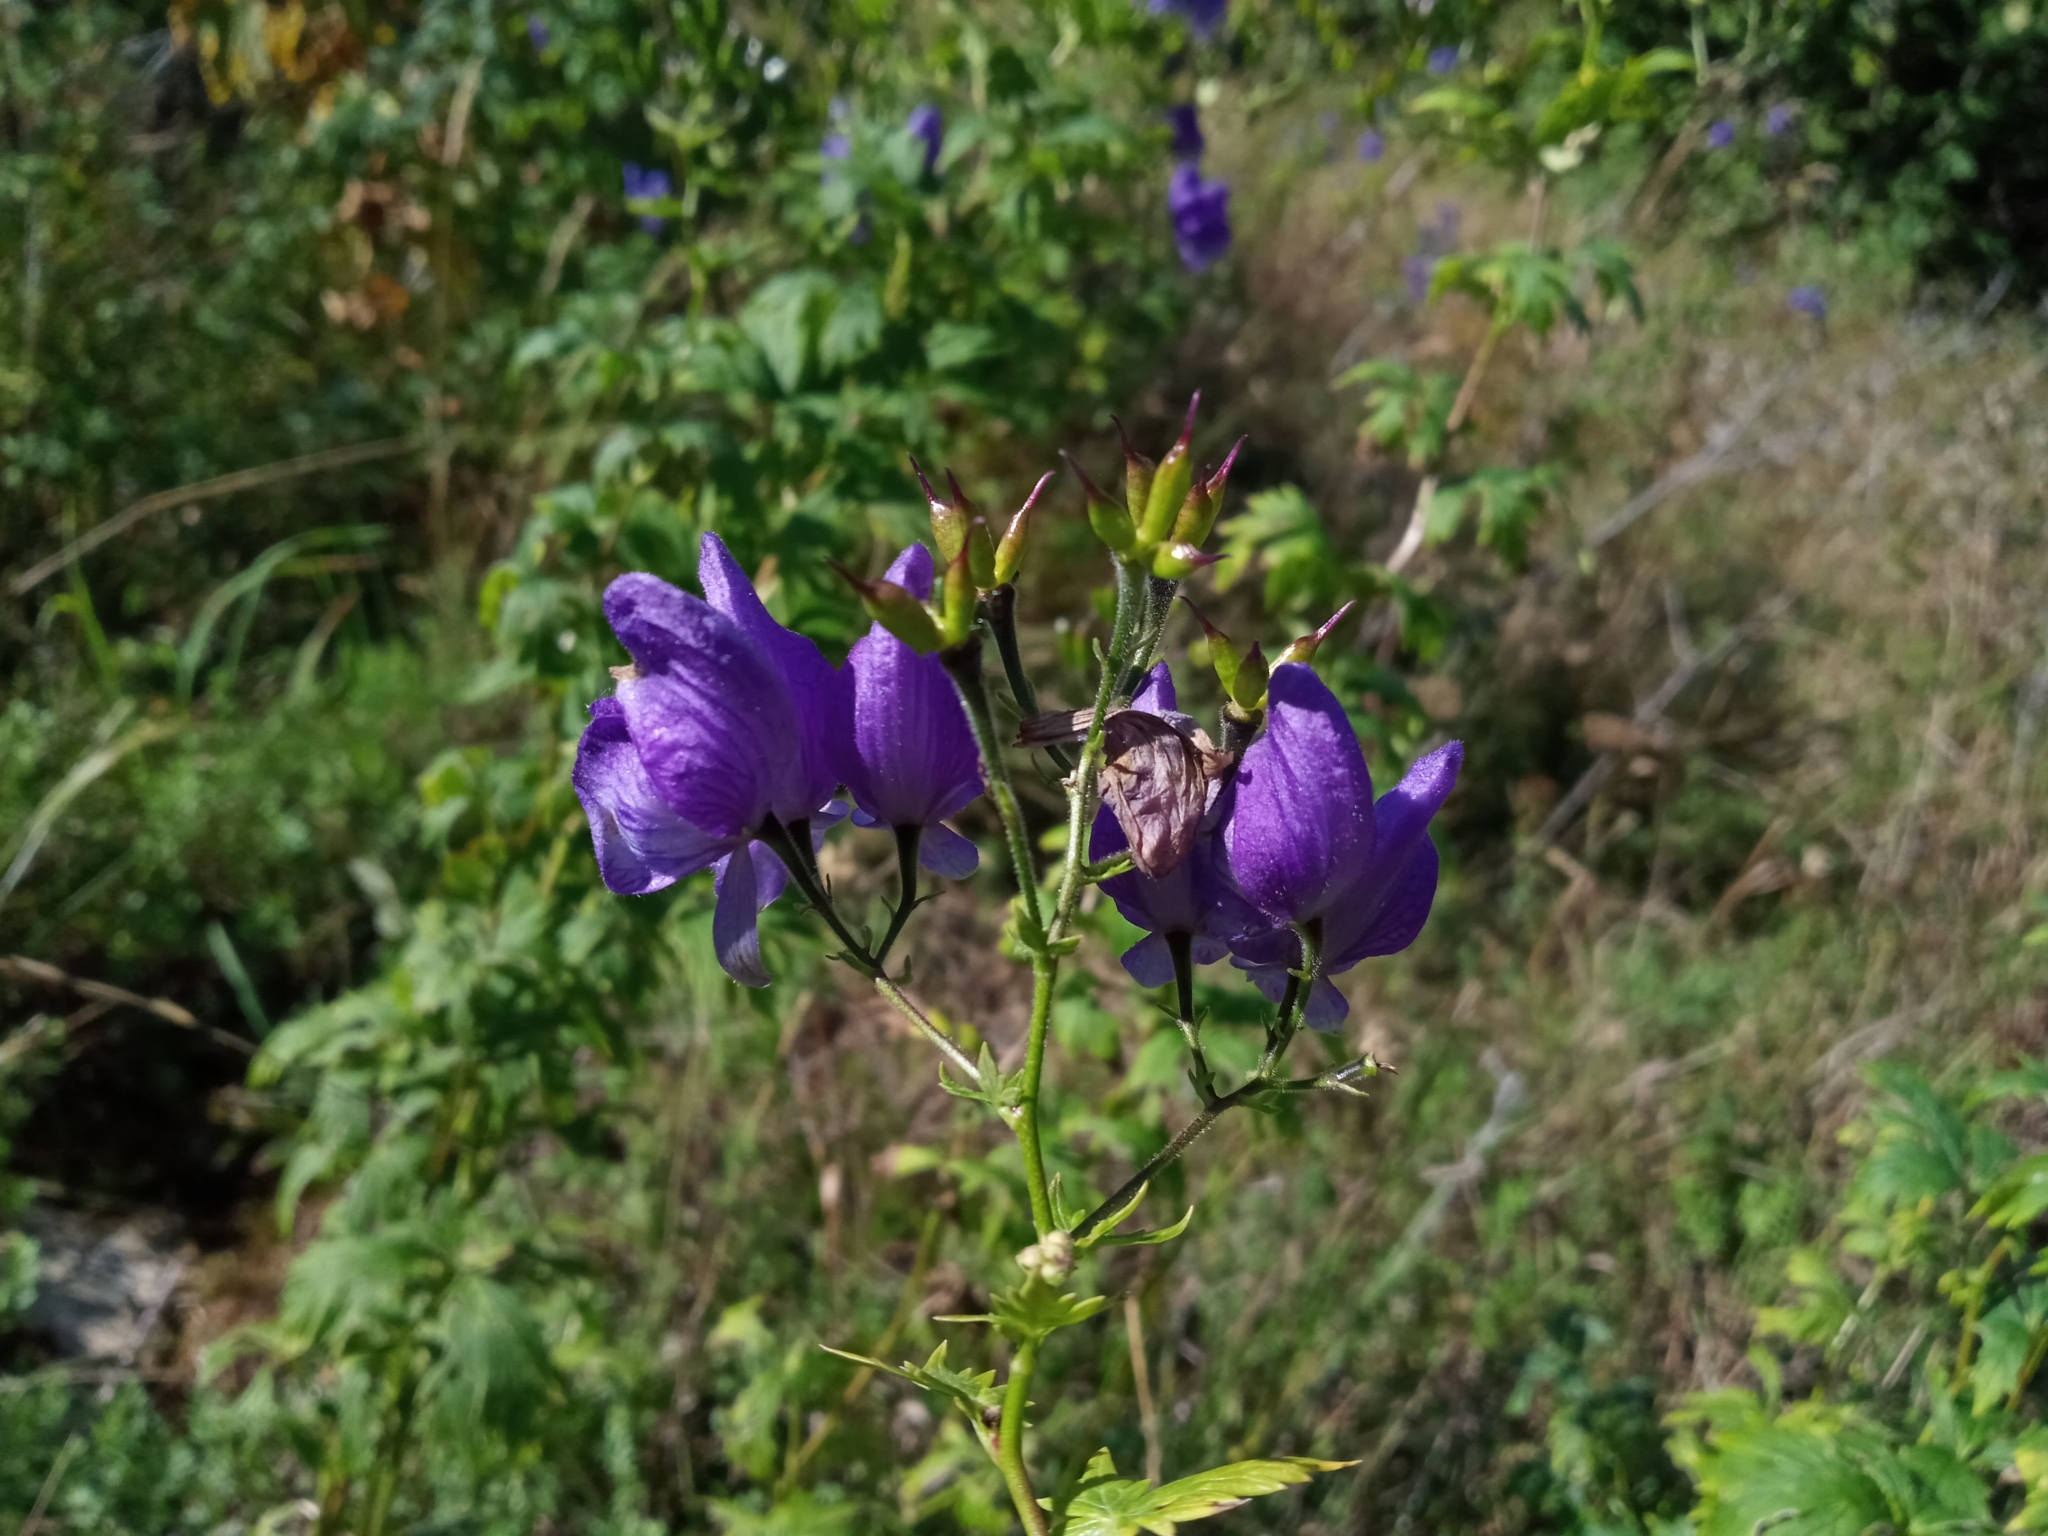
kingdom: Plantae
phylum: Tracheophyta
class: Magnoliopsida
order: Ranunculales
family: Ranunculaceae
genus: Aconitum
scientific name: Aconitum degenii
